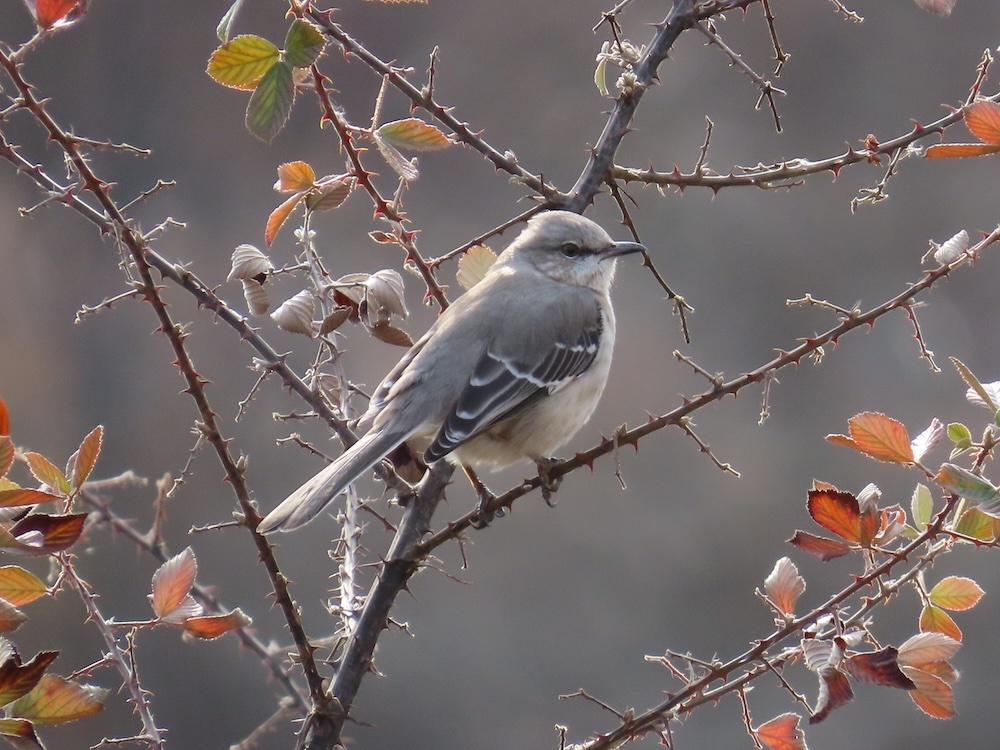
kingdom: Animalia
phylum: Chordata
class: Aves
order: Passeriformes
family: Mimidae
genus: Mimus
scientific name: Mimus polyglottos
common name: Northern mockingbird
